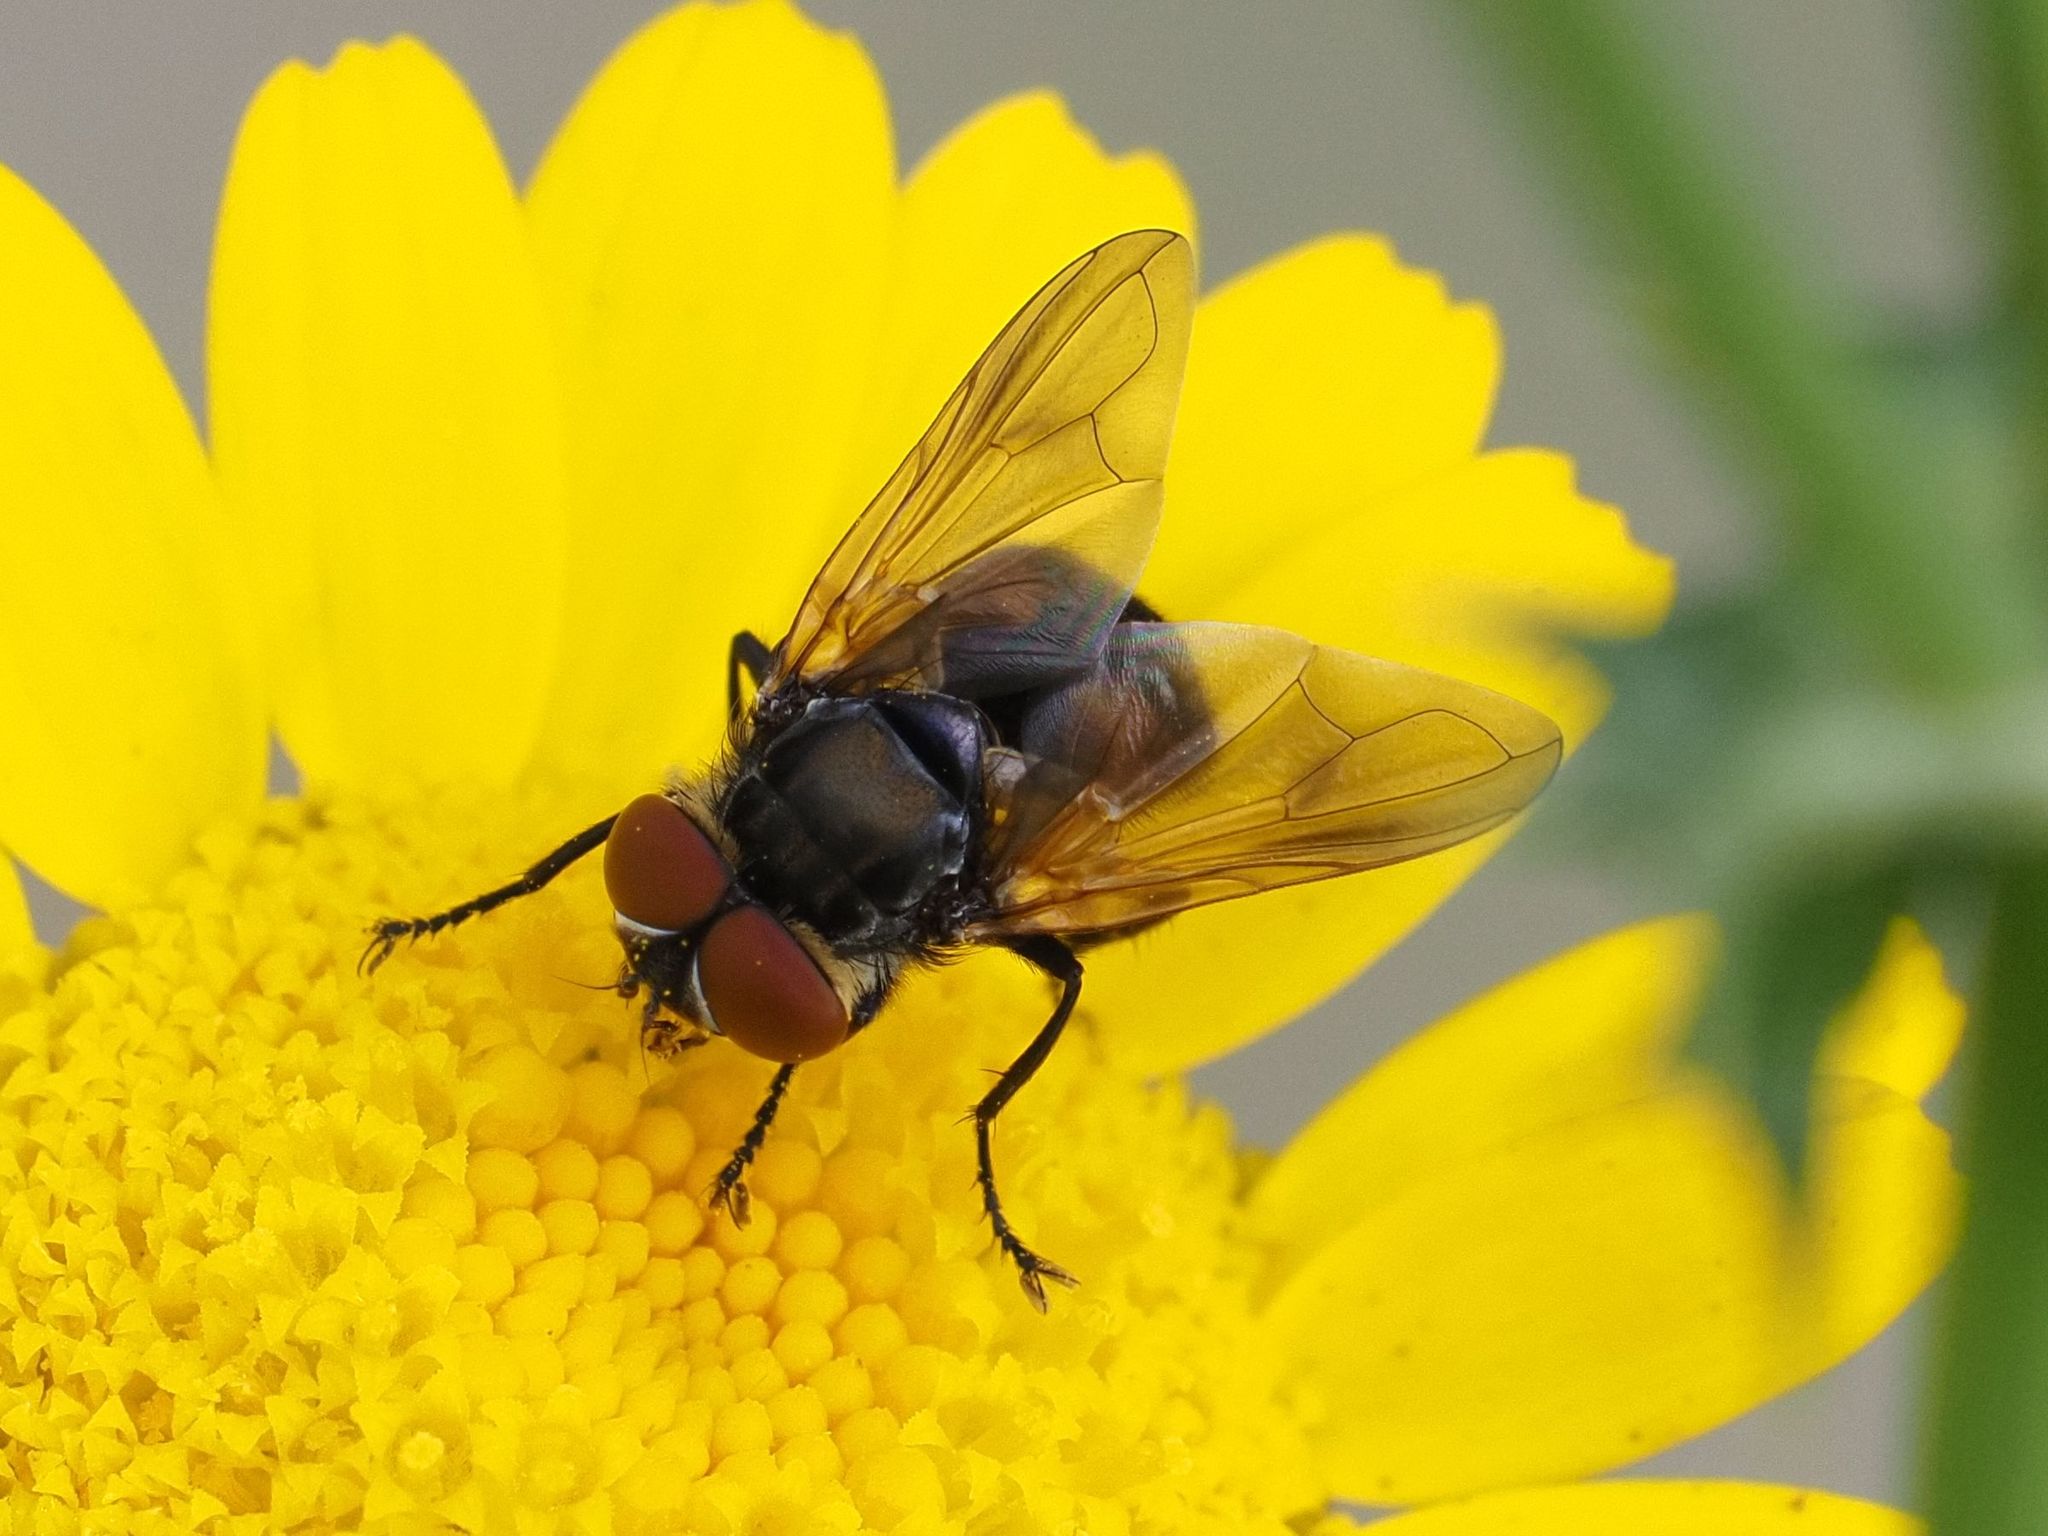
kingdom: Animalia
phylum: Arthropoda
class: Insecta
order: Diptera
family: Tachinidae
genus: Phasia
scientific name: Phasia aurigera
